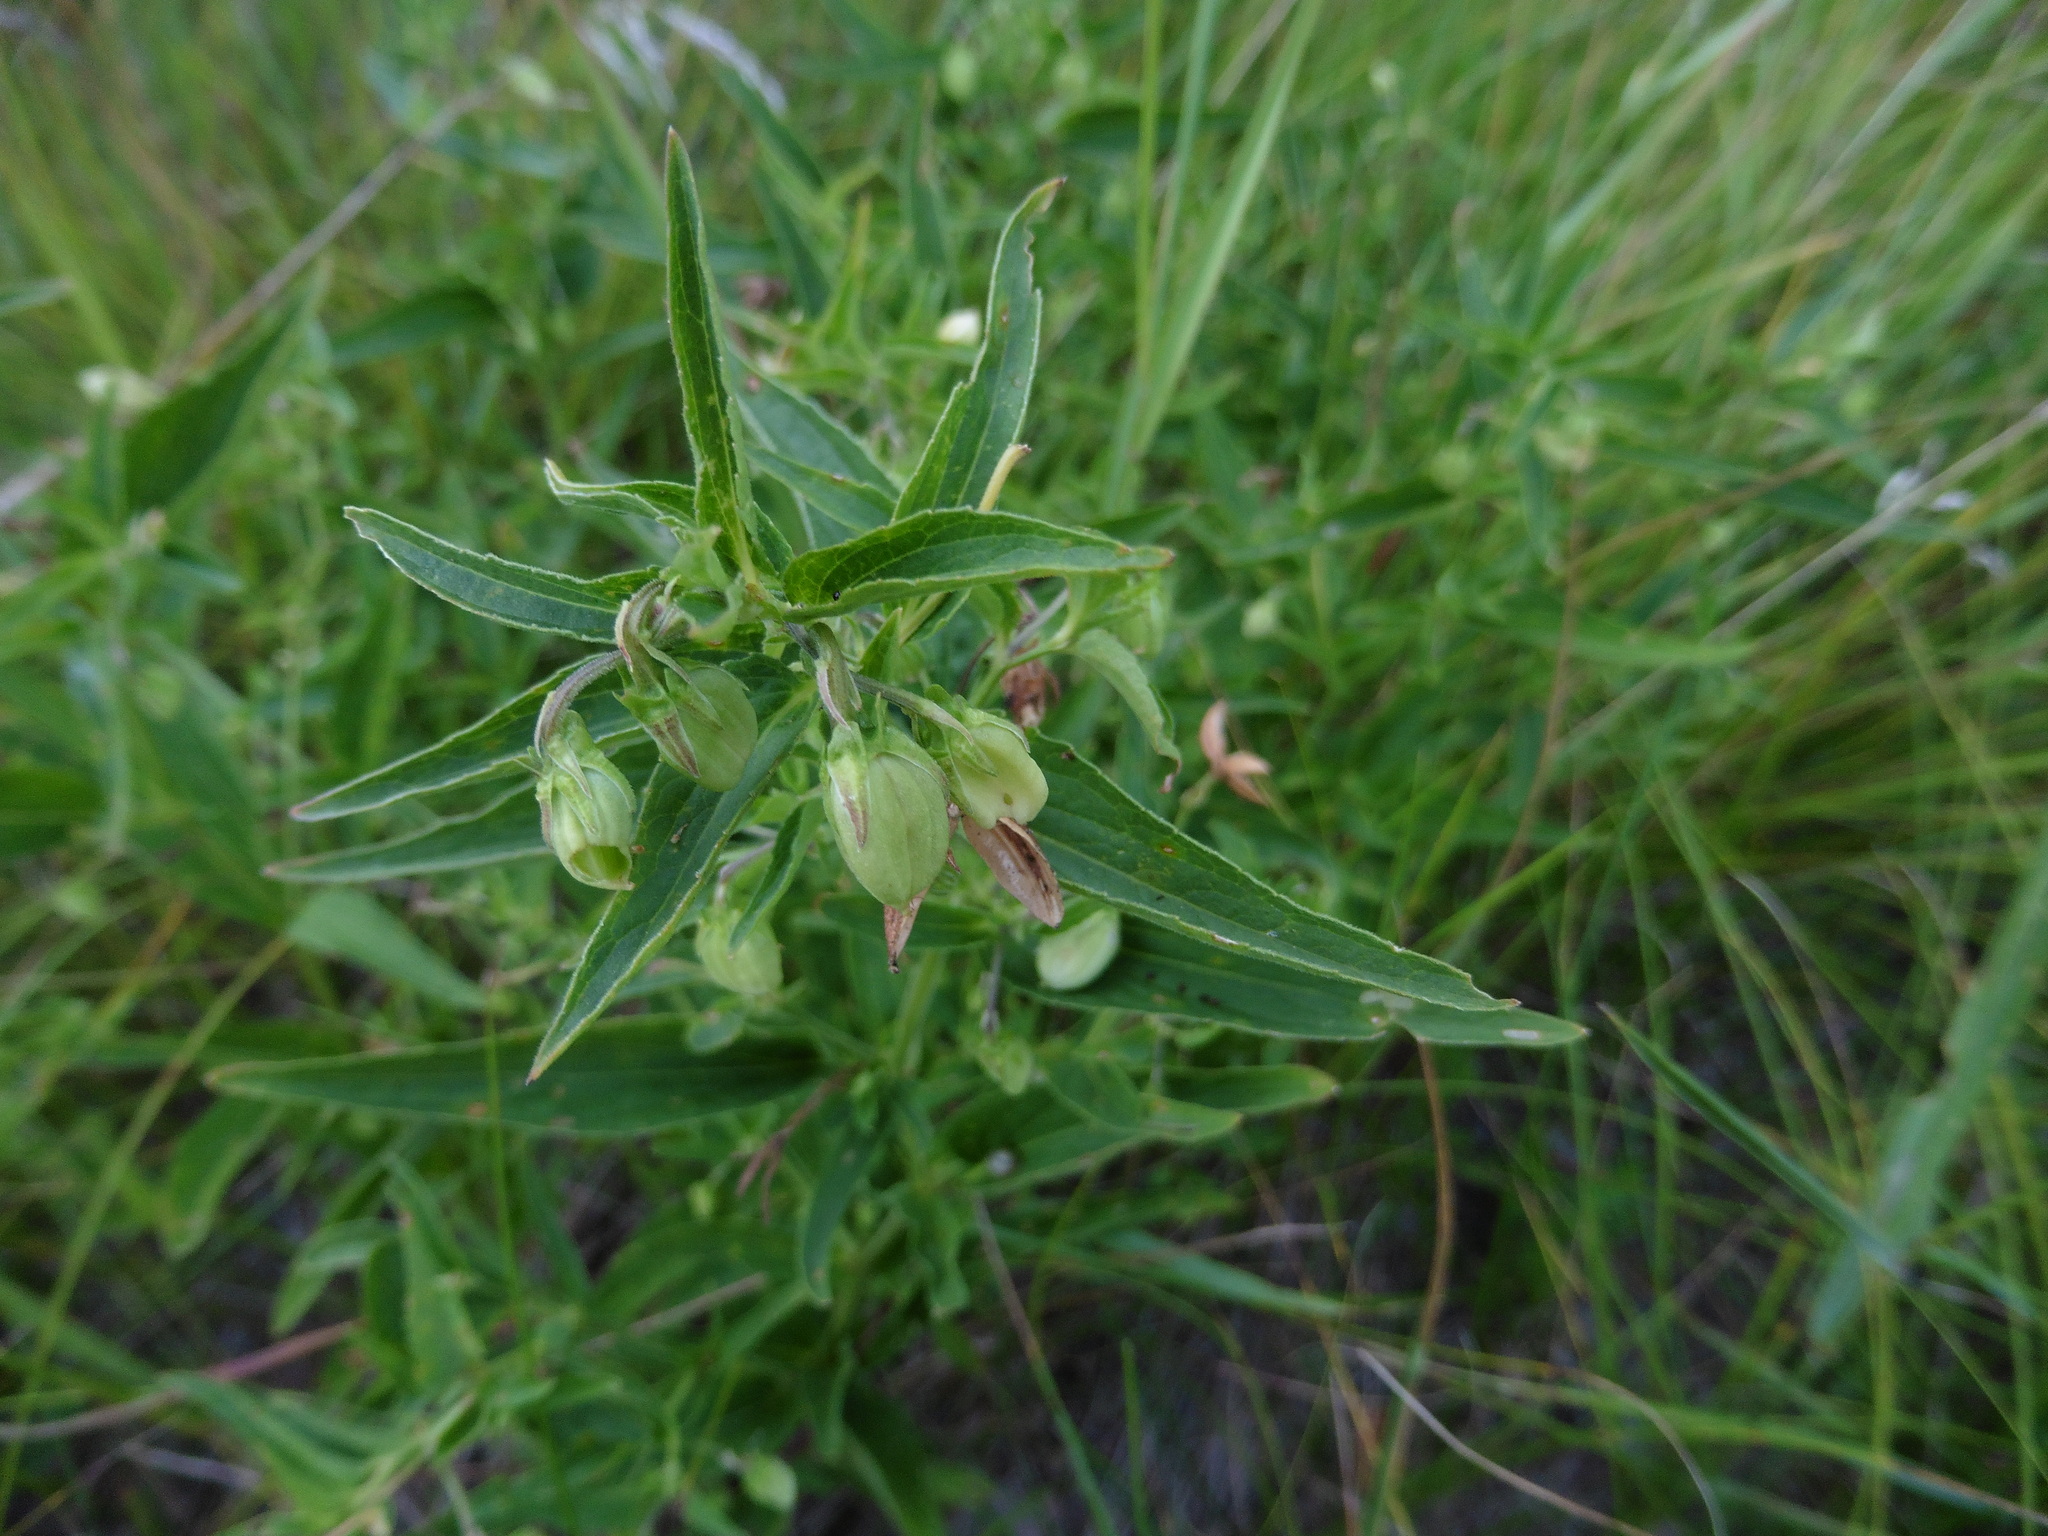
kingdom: Plantae
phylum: Tracheophyta
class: Magnoliopsida
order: Malpighiales
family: Violaceae
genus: Viola
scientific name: Viola elatior
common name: Tall violet
